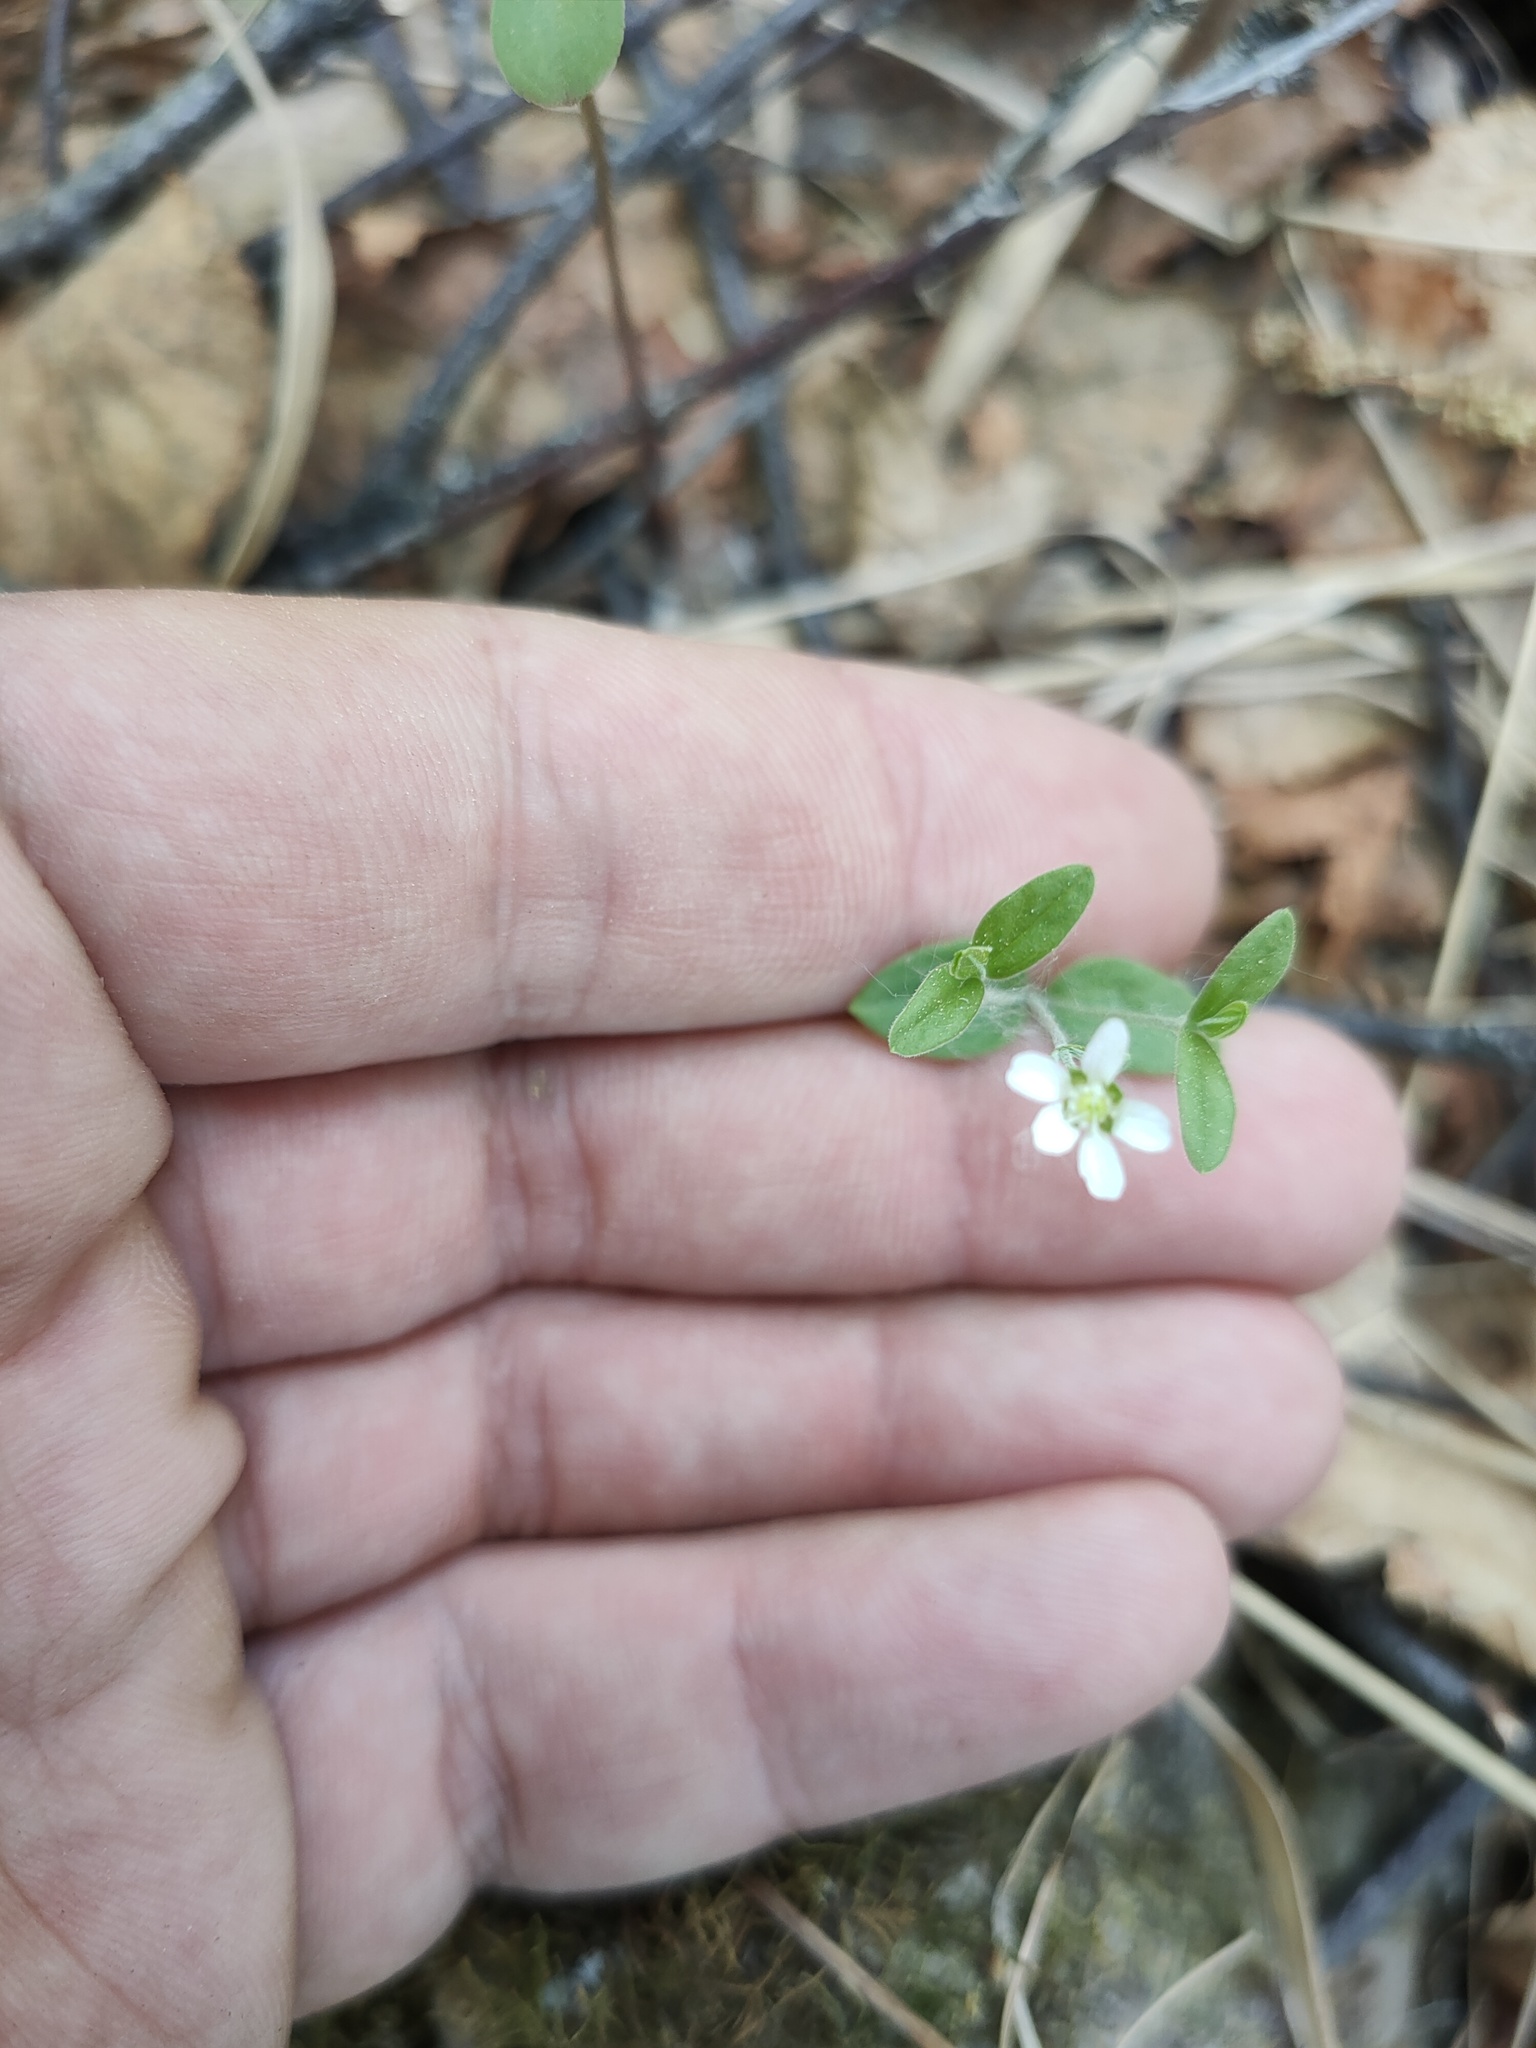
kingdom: Plantae
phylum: Tracheophyta
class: Magnoliopsida
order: Caryophyllales
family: Caryophyllaceae
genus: Moehringia
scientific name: Moehringia lateriflora
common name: Blunt-leaved sandwort
